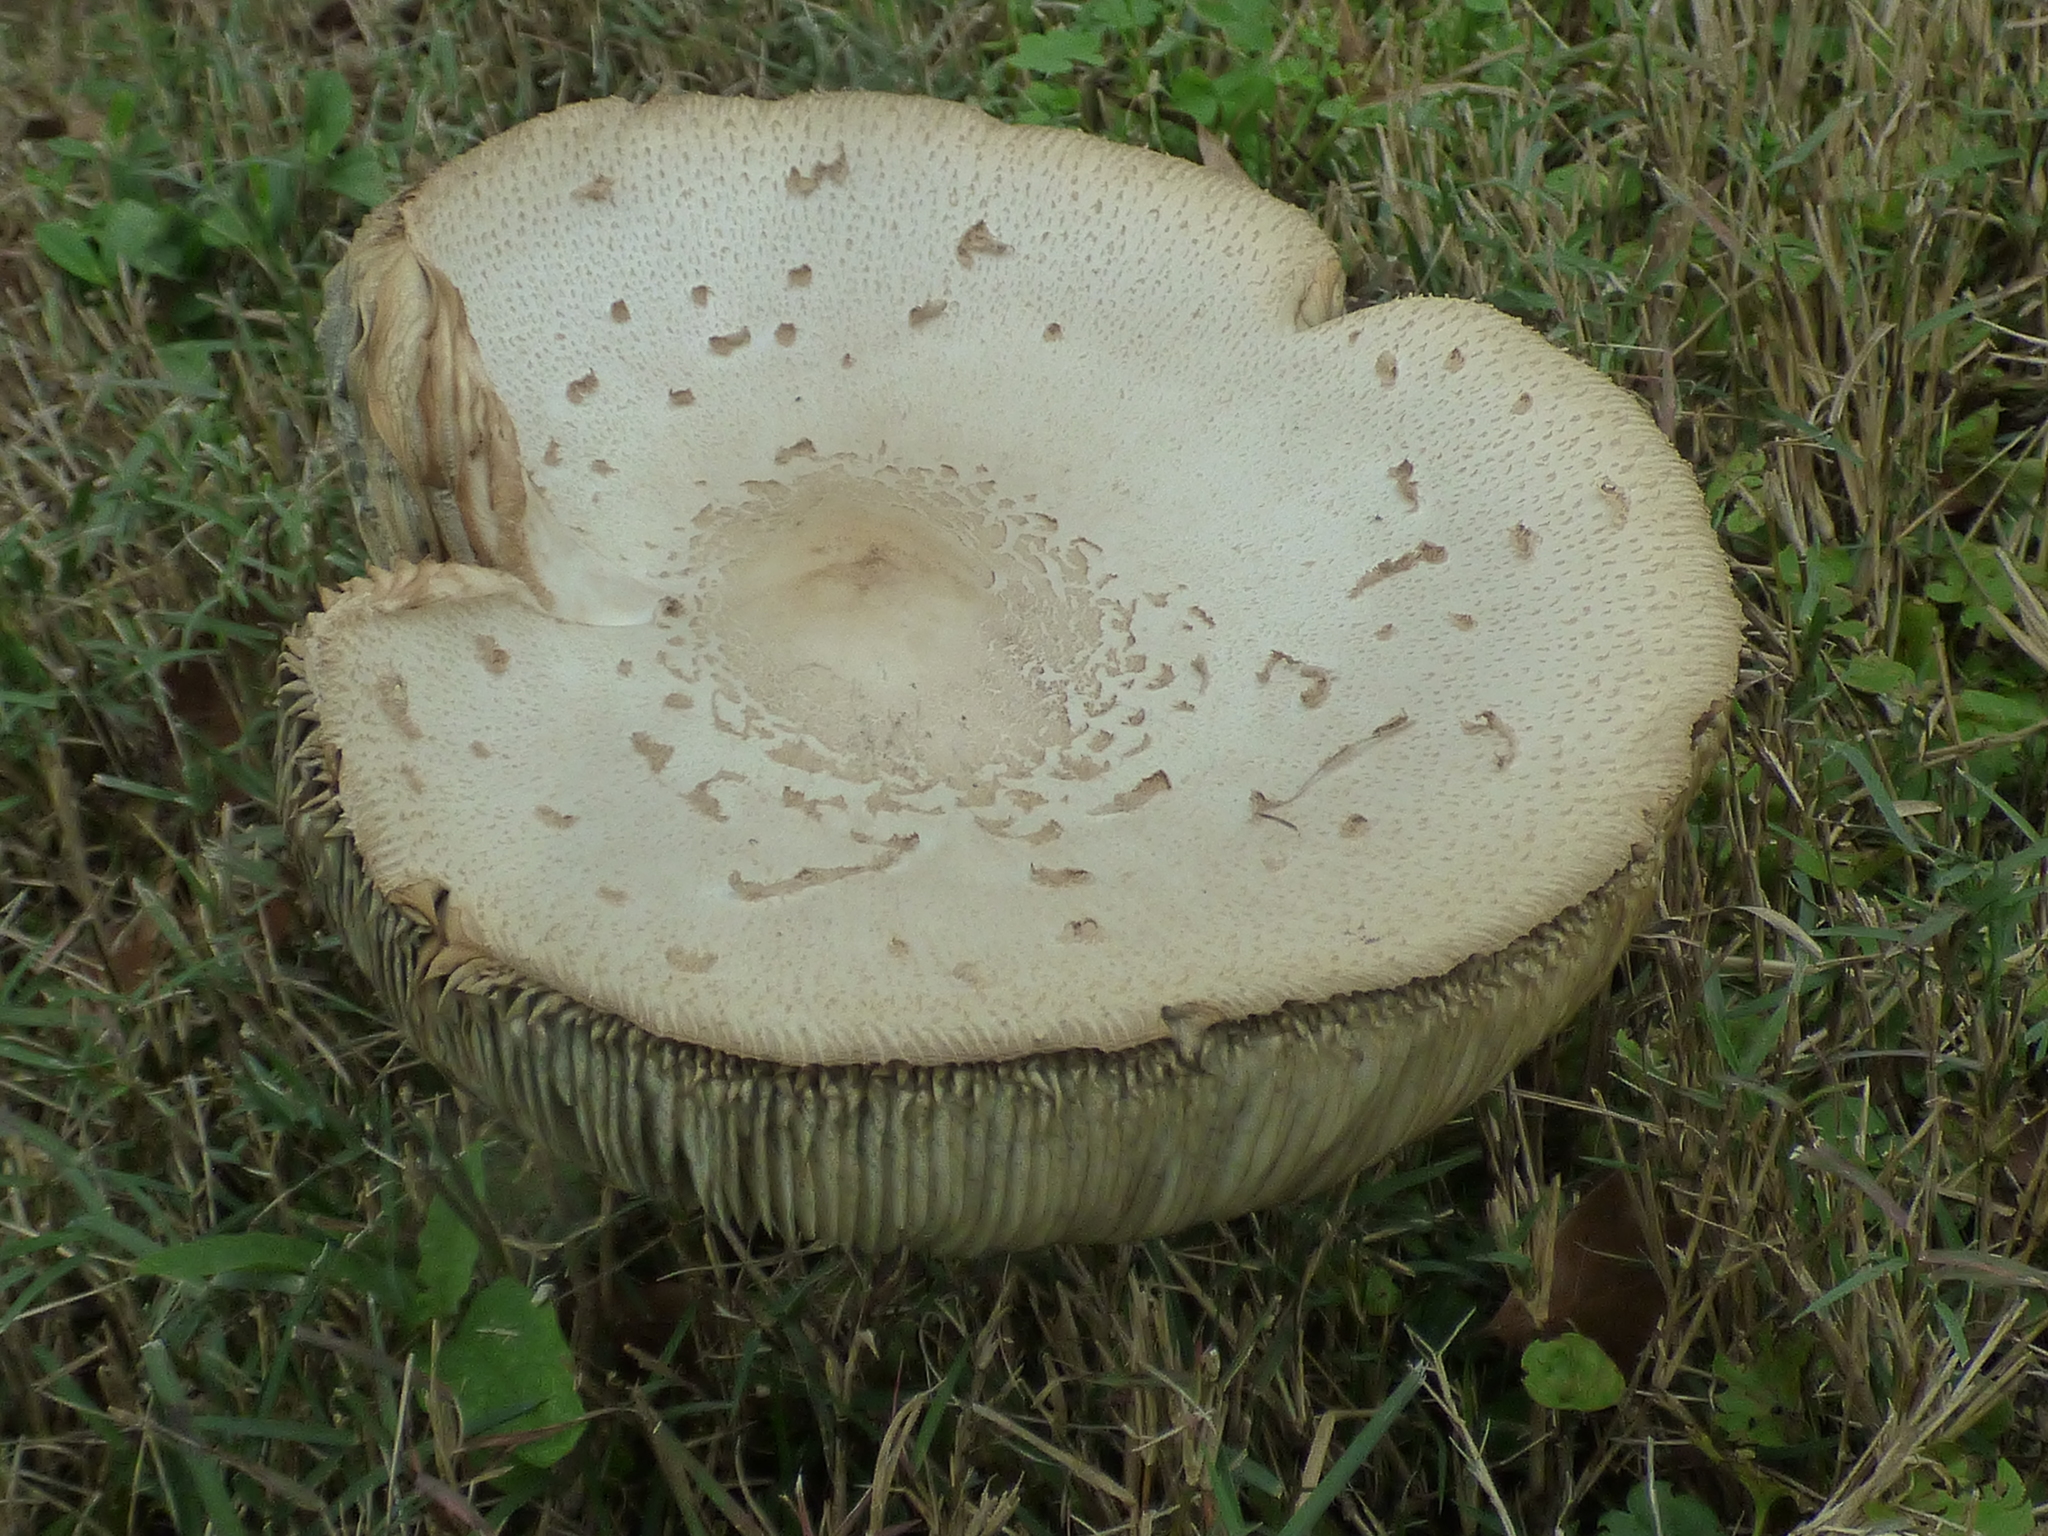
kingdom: Fungi
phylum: Basidiomycota
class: Agaricomycetes
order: Agaricales
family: Agaricaceae
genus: Chlorophyllum
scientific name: Chlorophyllum molybdites
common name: False parasol
